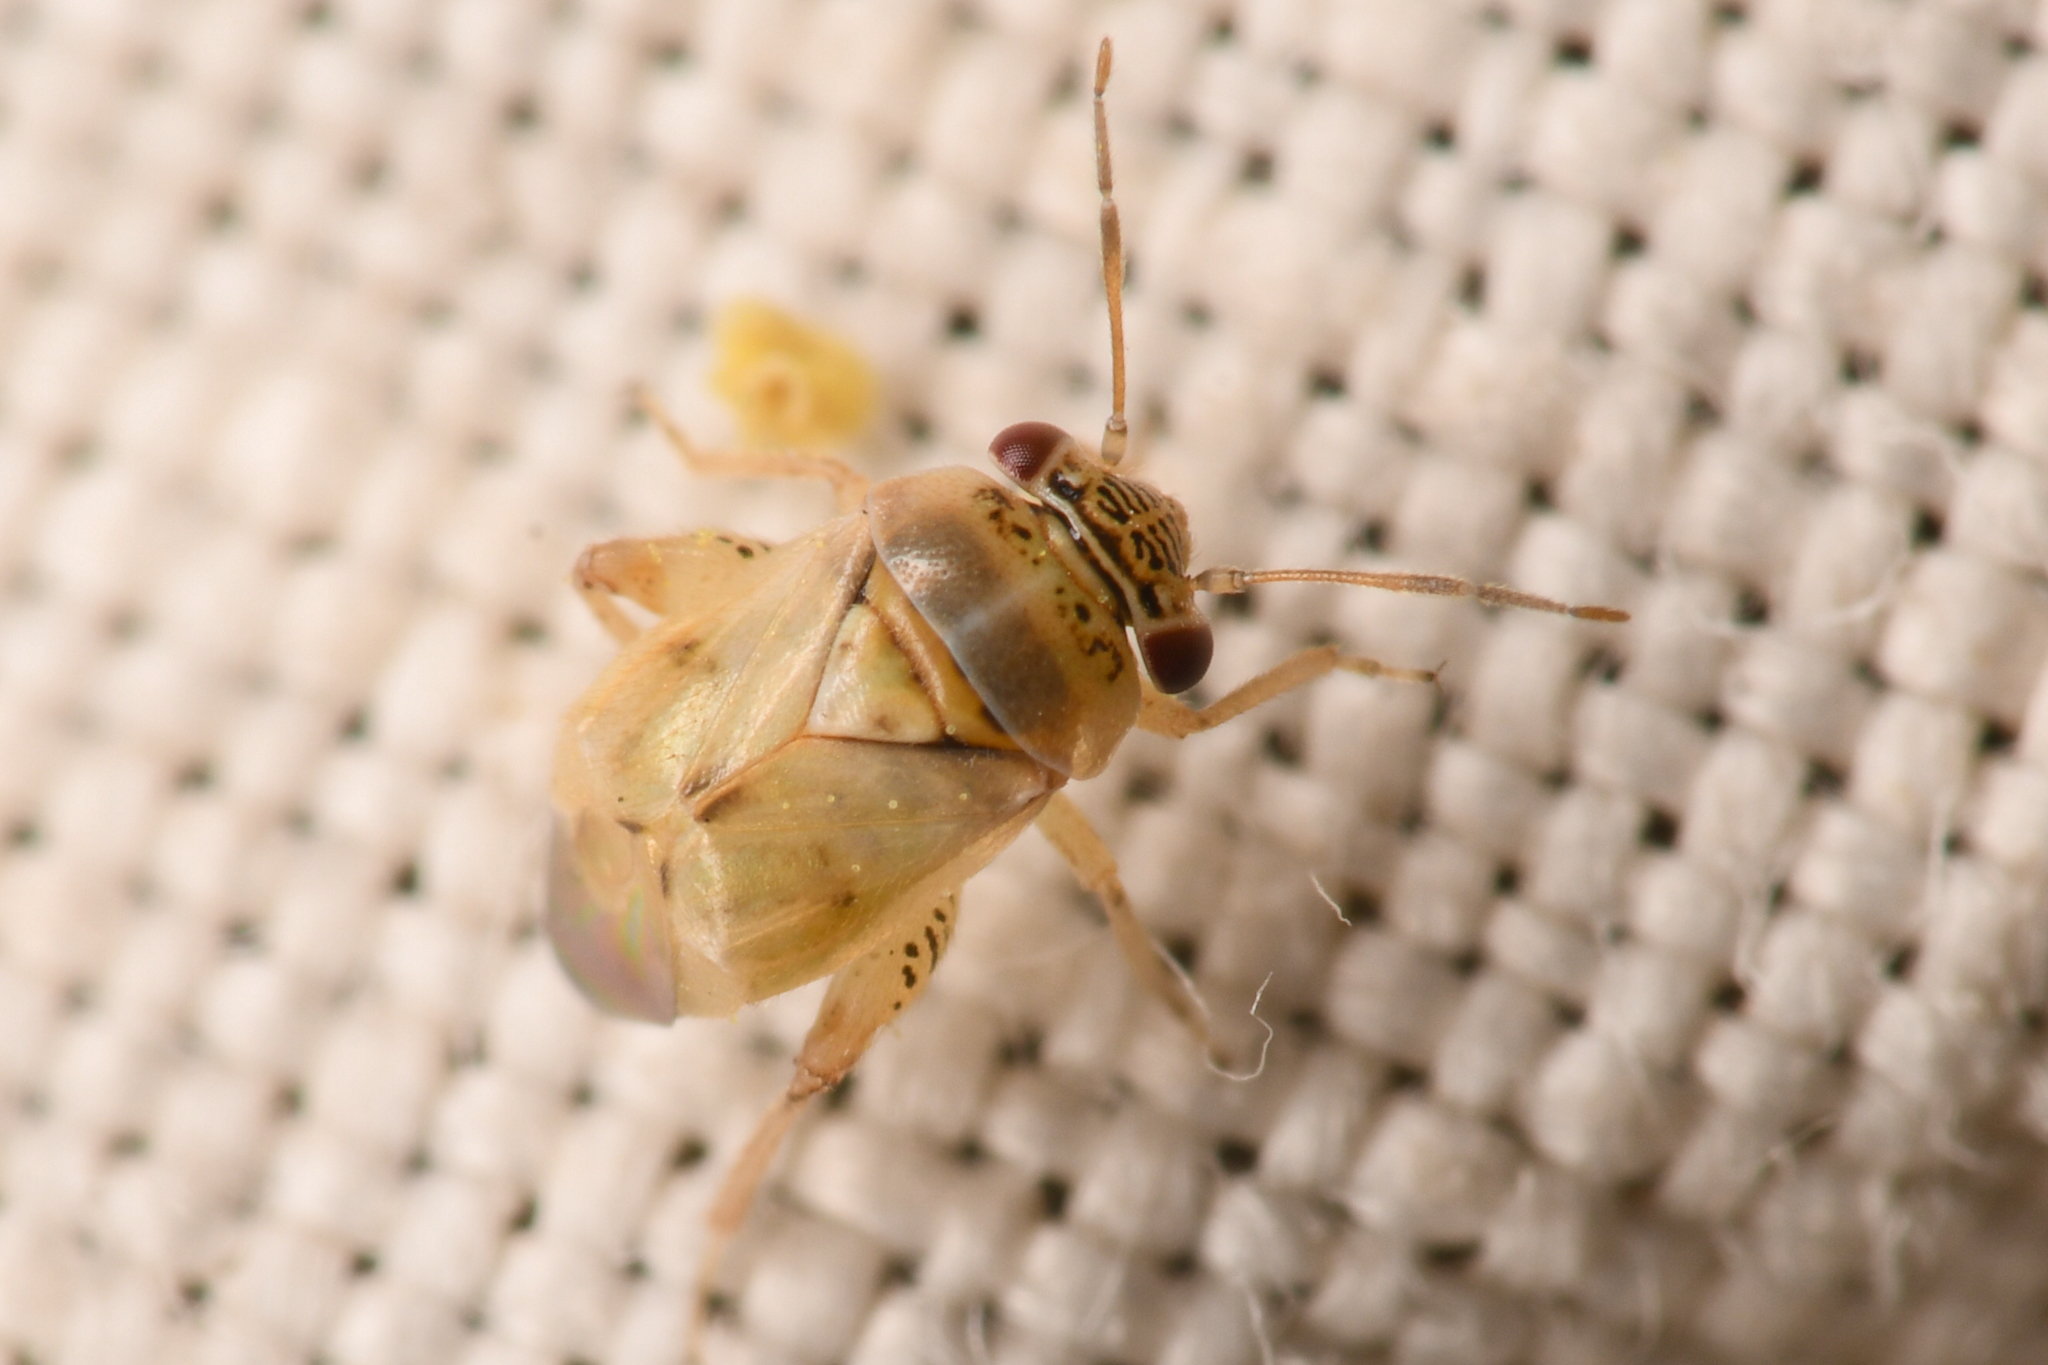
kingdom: Animalia
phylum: Arthropoda
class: Insecta
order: Hemiptera
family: Miridae
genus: Coridromius
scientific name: Coridromius chenopoderis
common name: Plant bug
